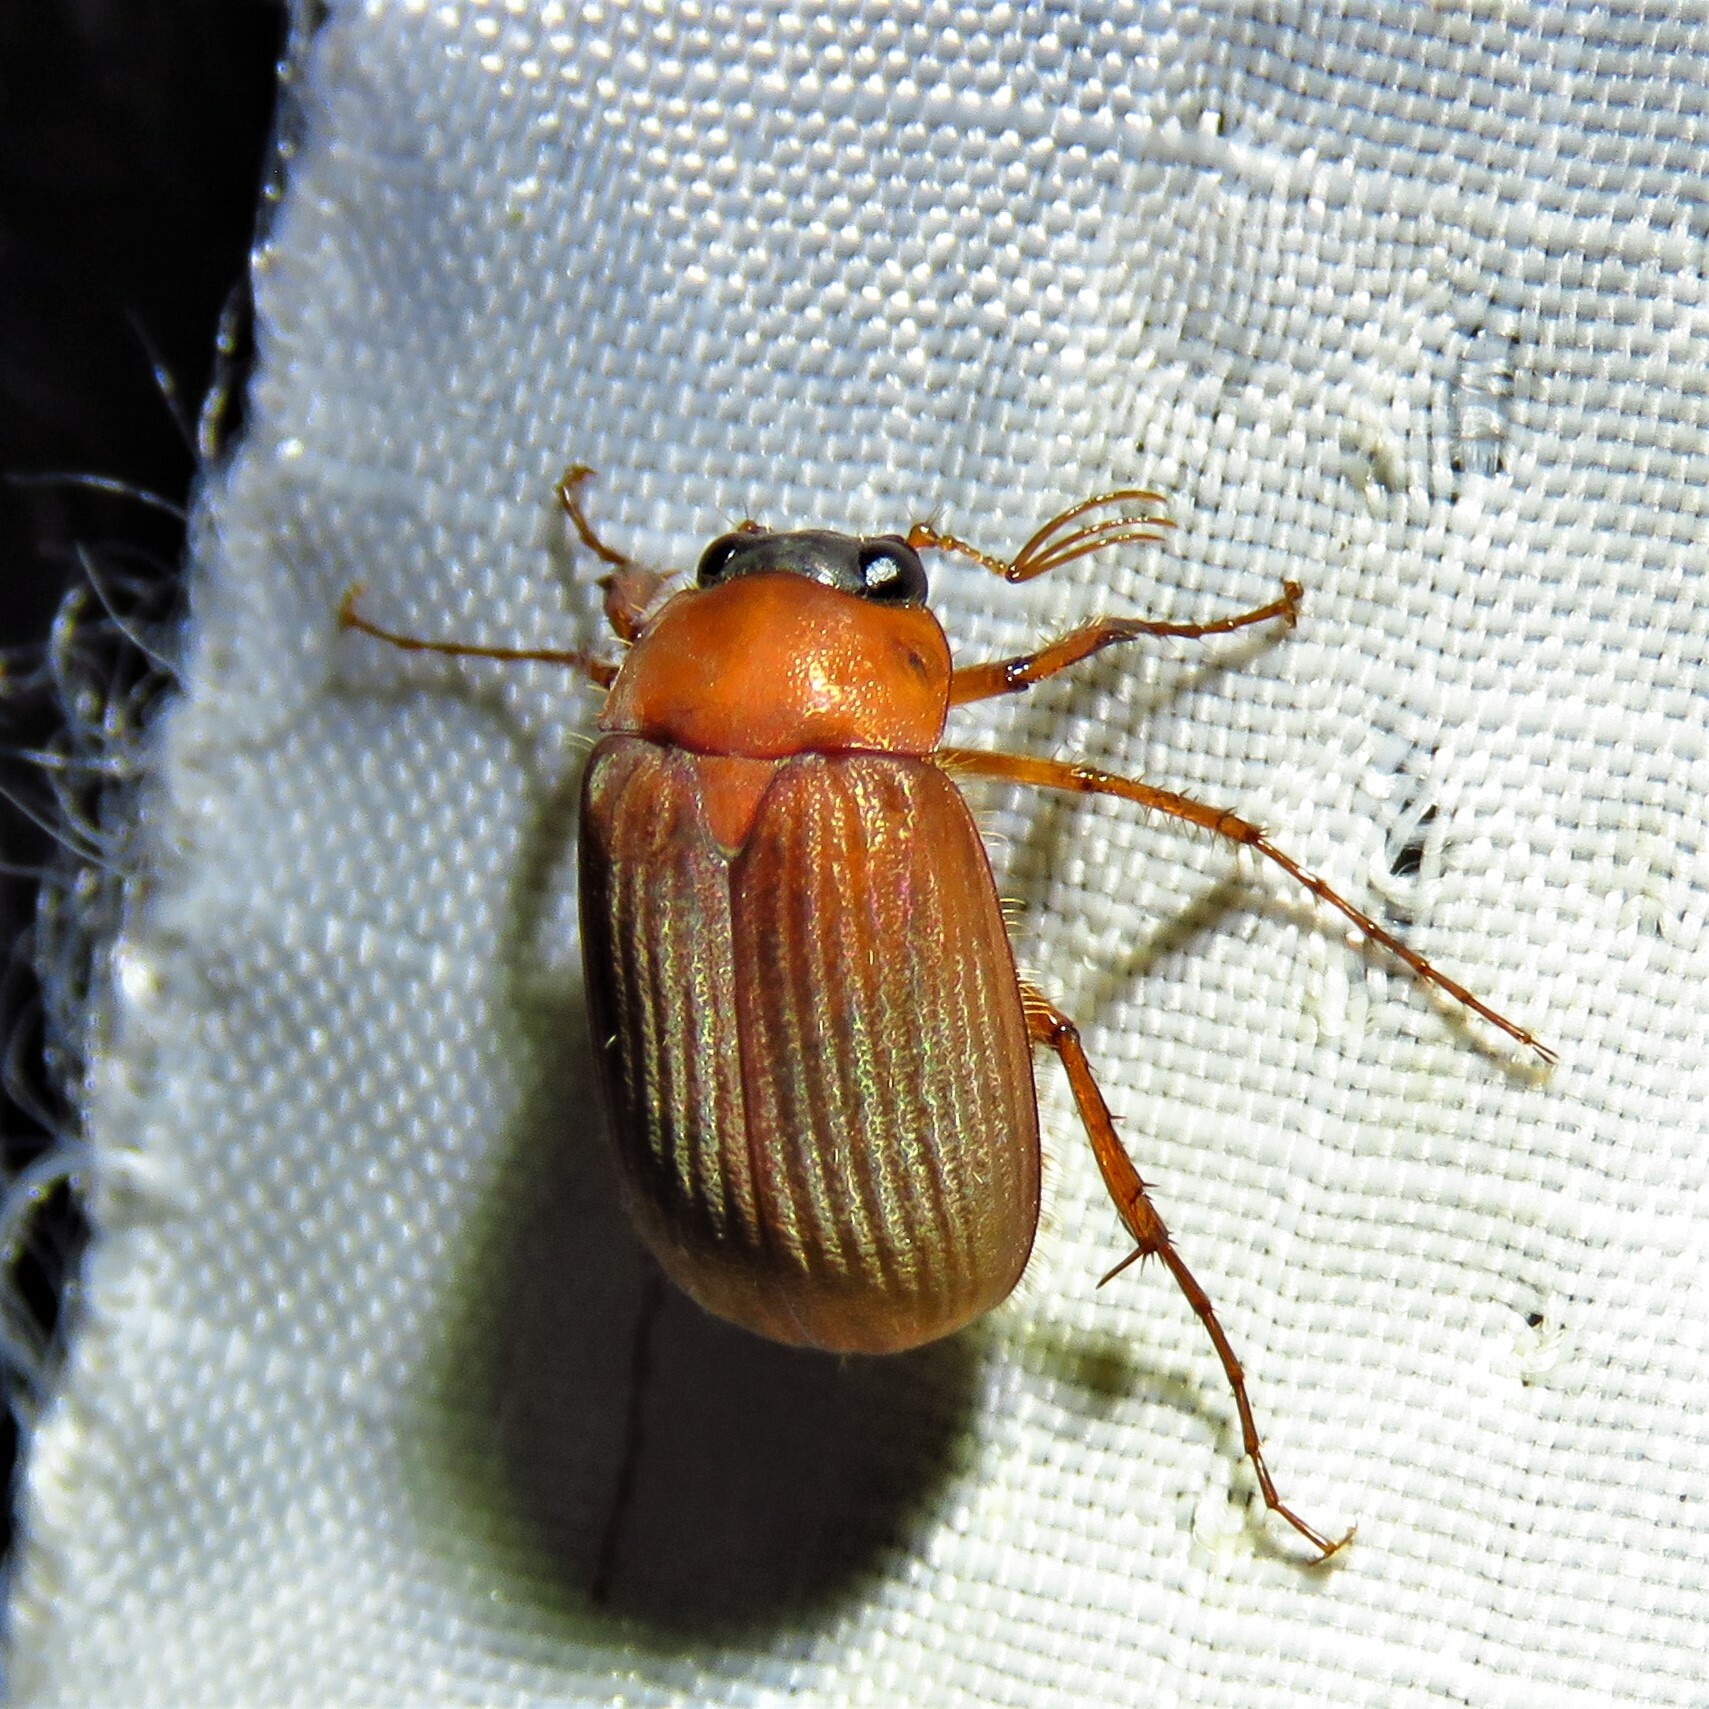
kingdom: Animalia
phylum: Arthropoda
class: Insecta
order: Coleoptera
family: Scarabaeidae
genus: Serica
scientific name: Serica brunnea
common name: Brown chafer
